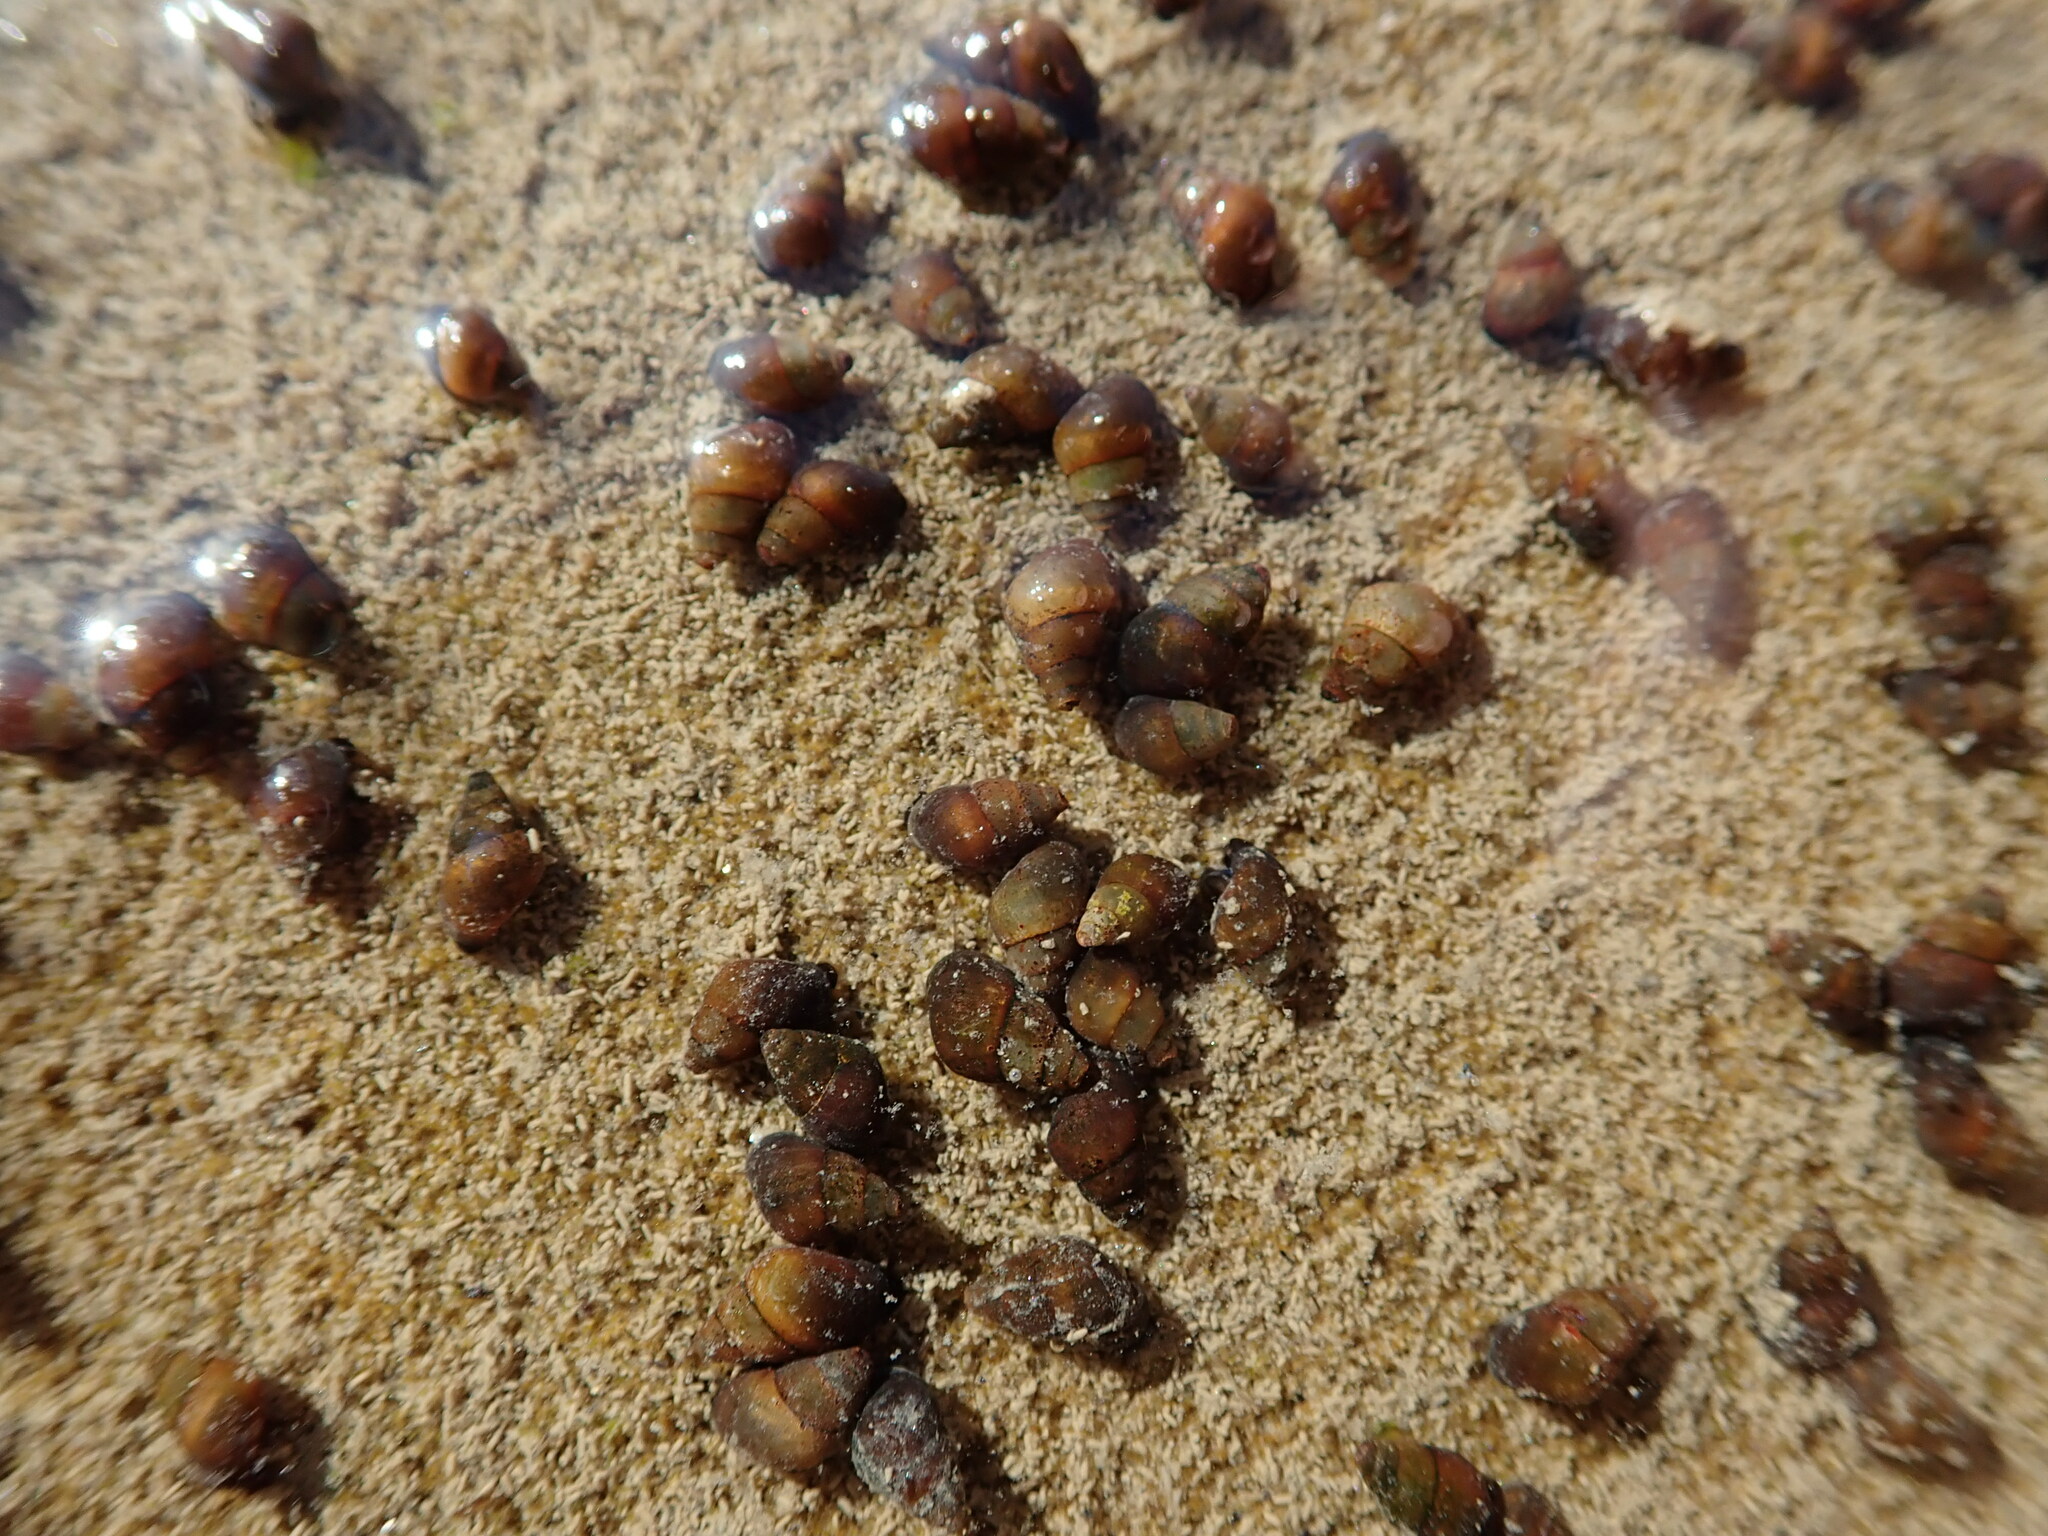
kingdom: Animalia
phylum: Mollusca
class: Gastropoda
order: Littorinimorpha
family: Tateidae
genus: Potamopyrgus
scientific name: Potamopyrgus estuarinus
